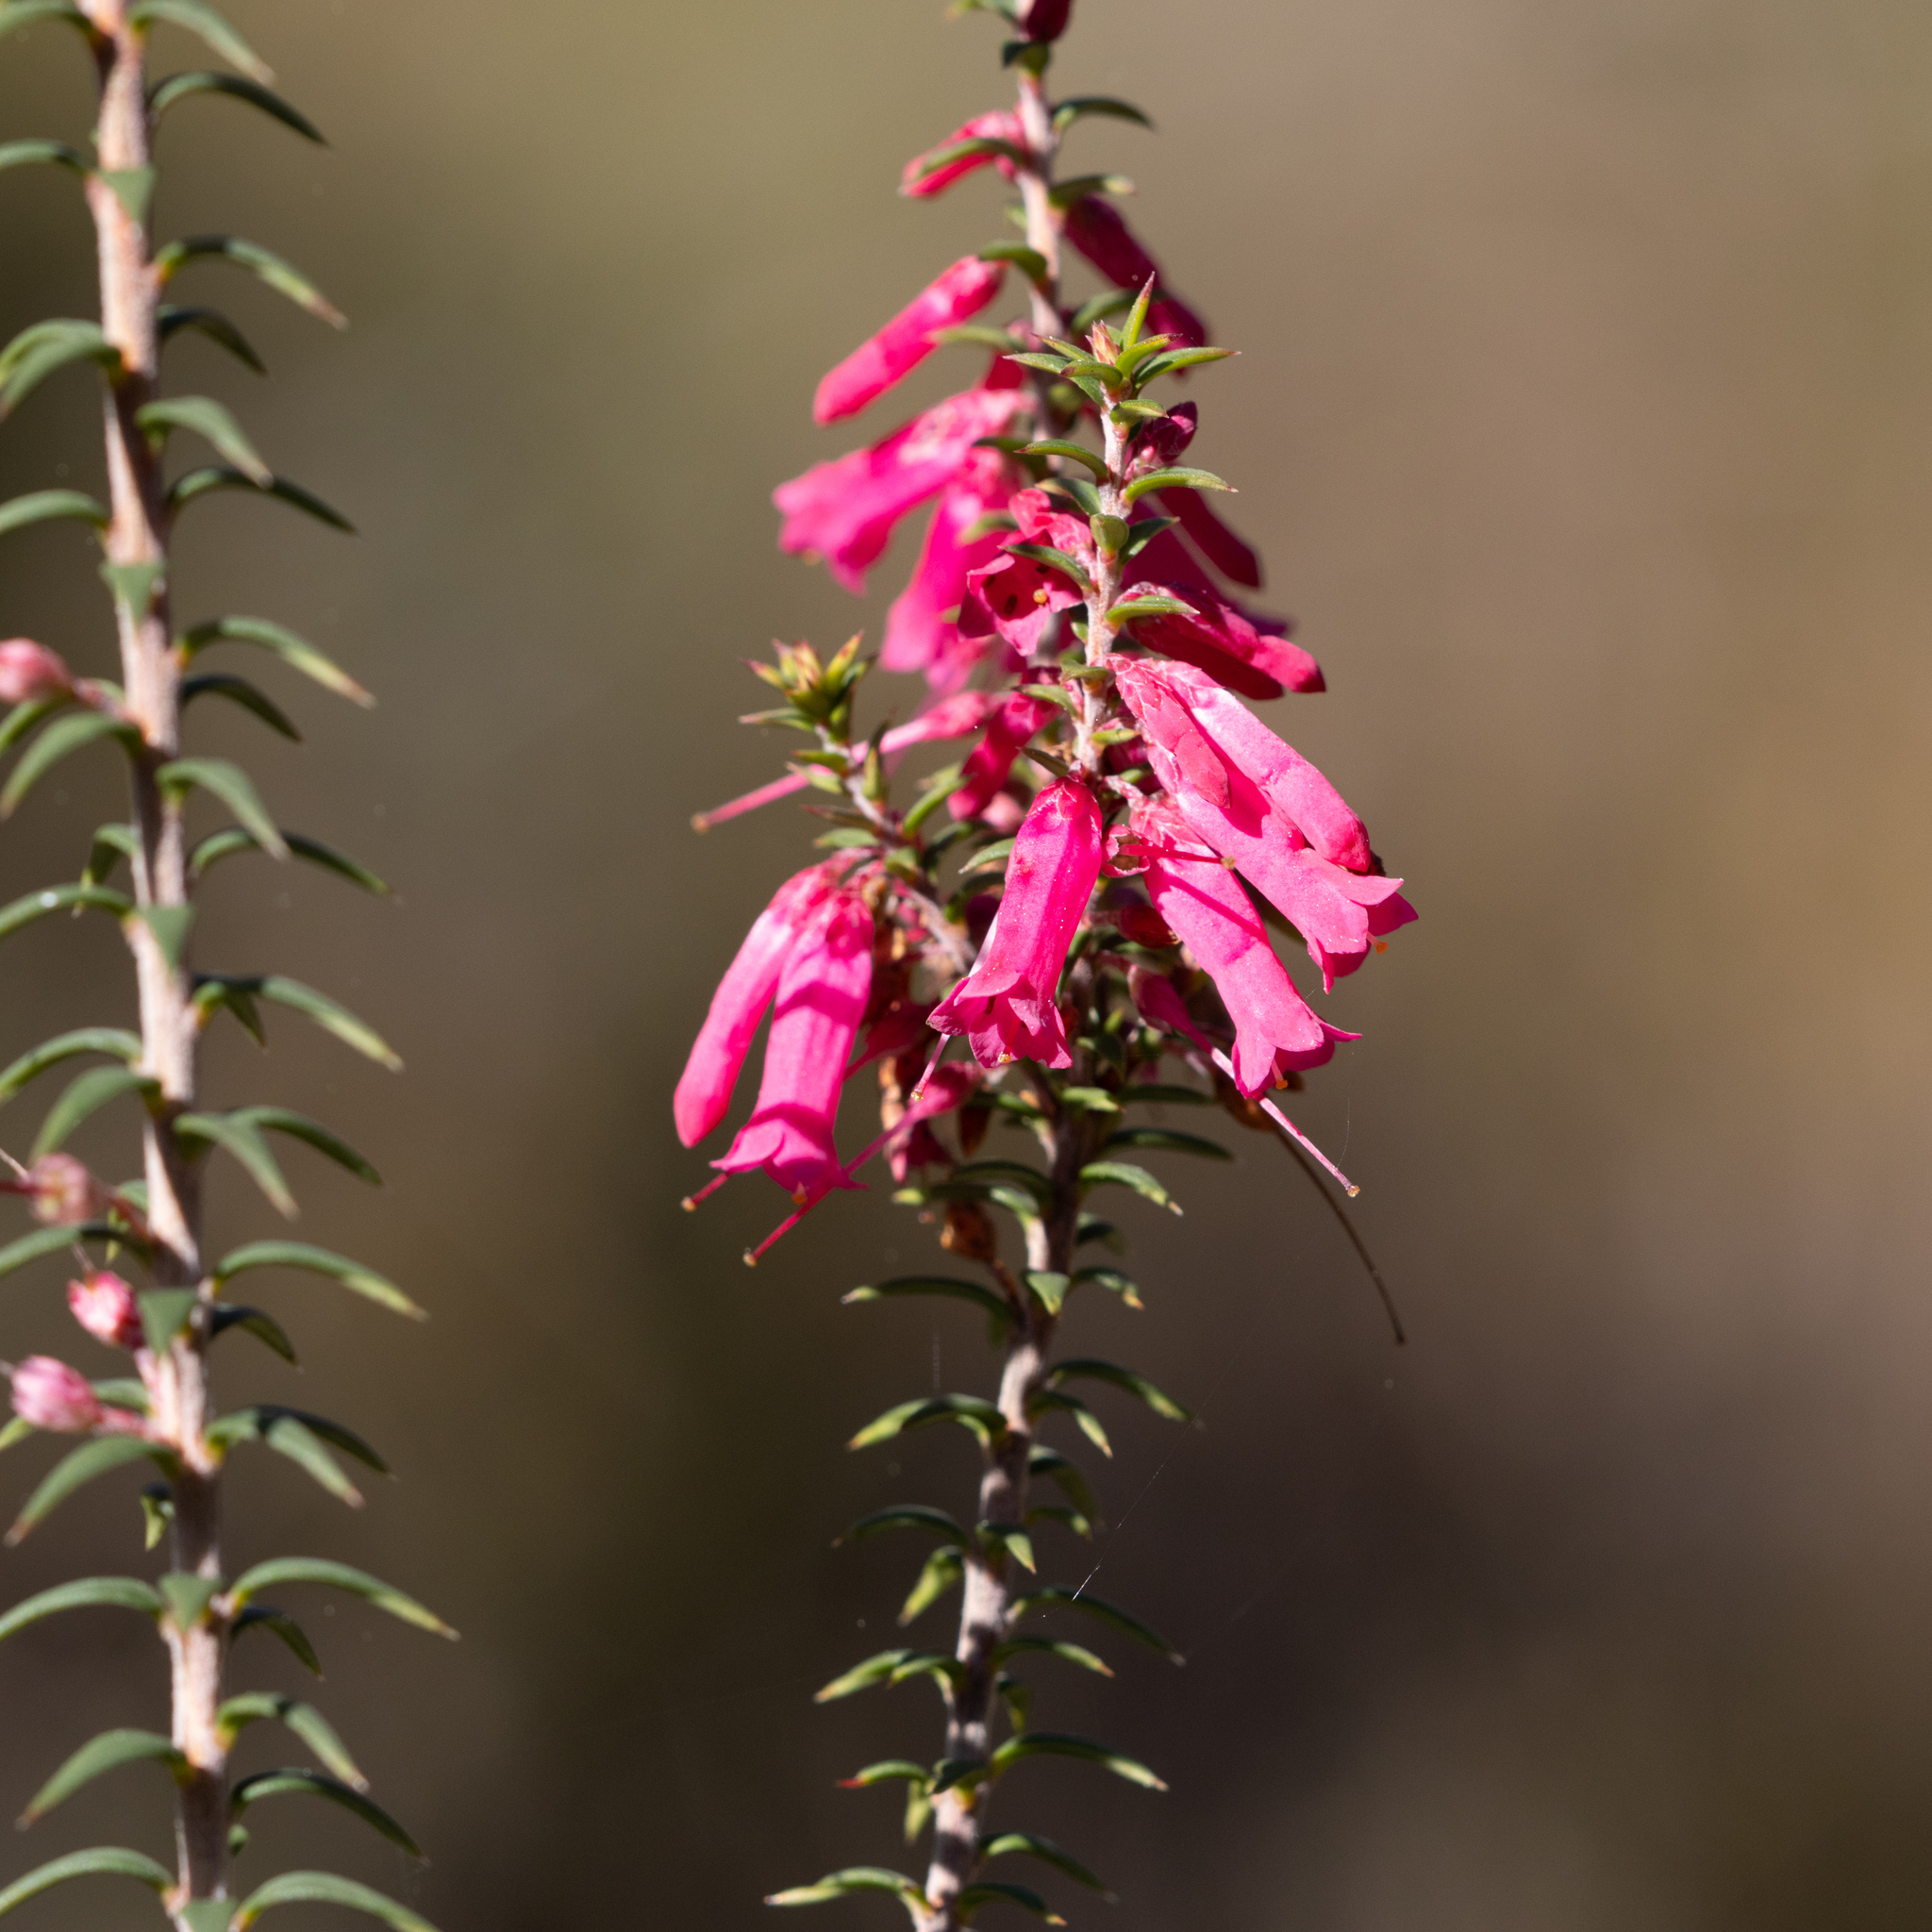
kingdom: Plantae
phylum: Tracheophyta
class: Magnoliopsida
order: Ericales
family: Ericaceae
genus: Epacris
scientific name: Epacris impressa
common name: Common-heath
